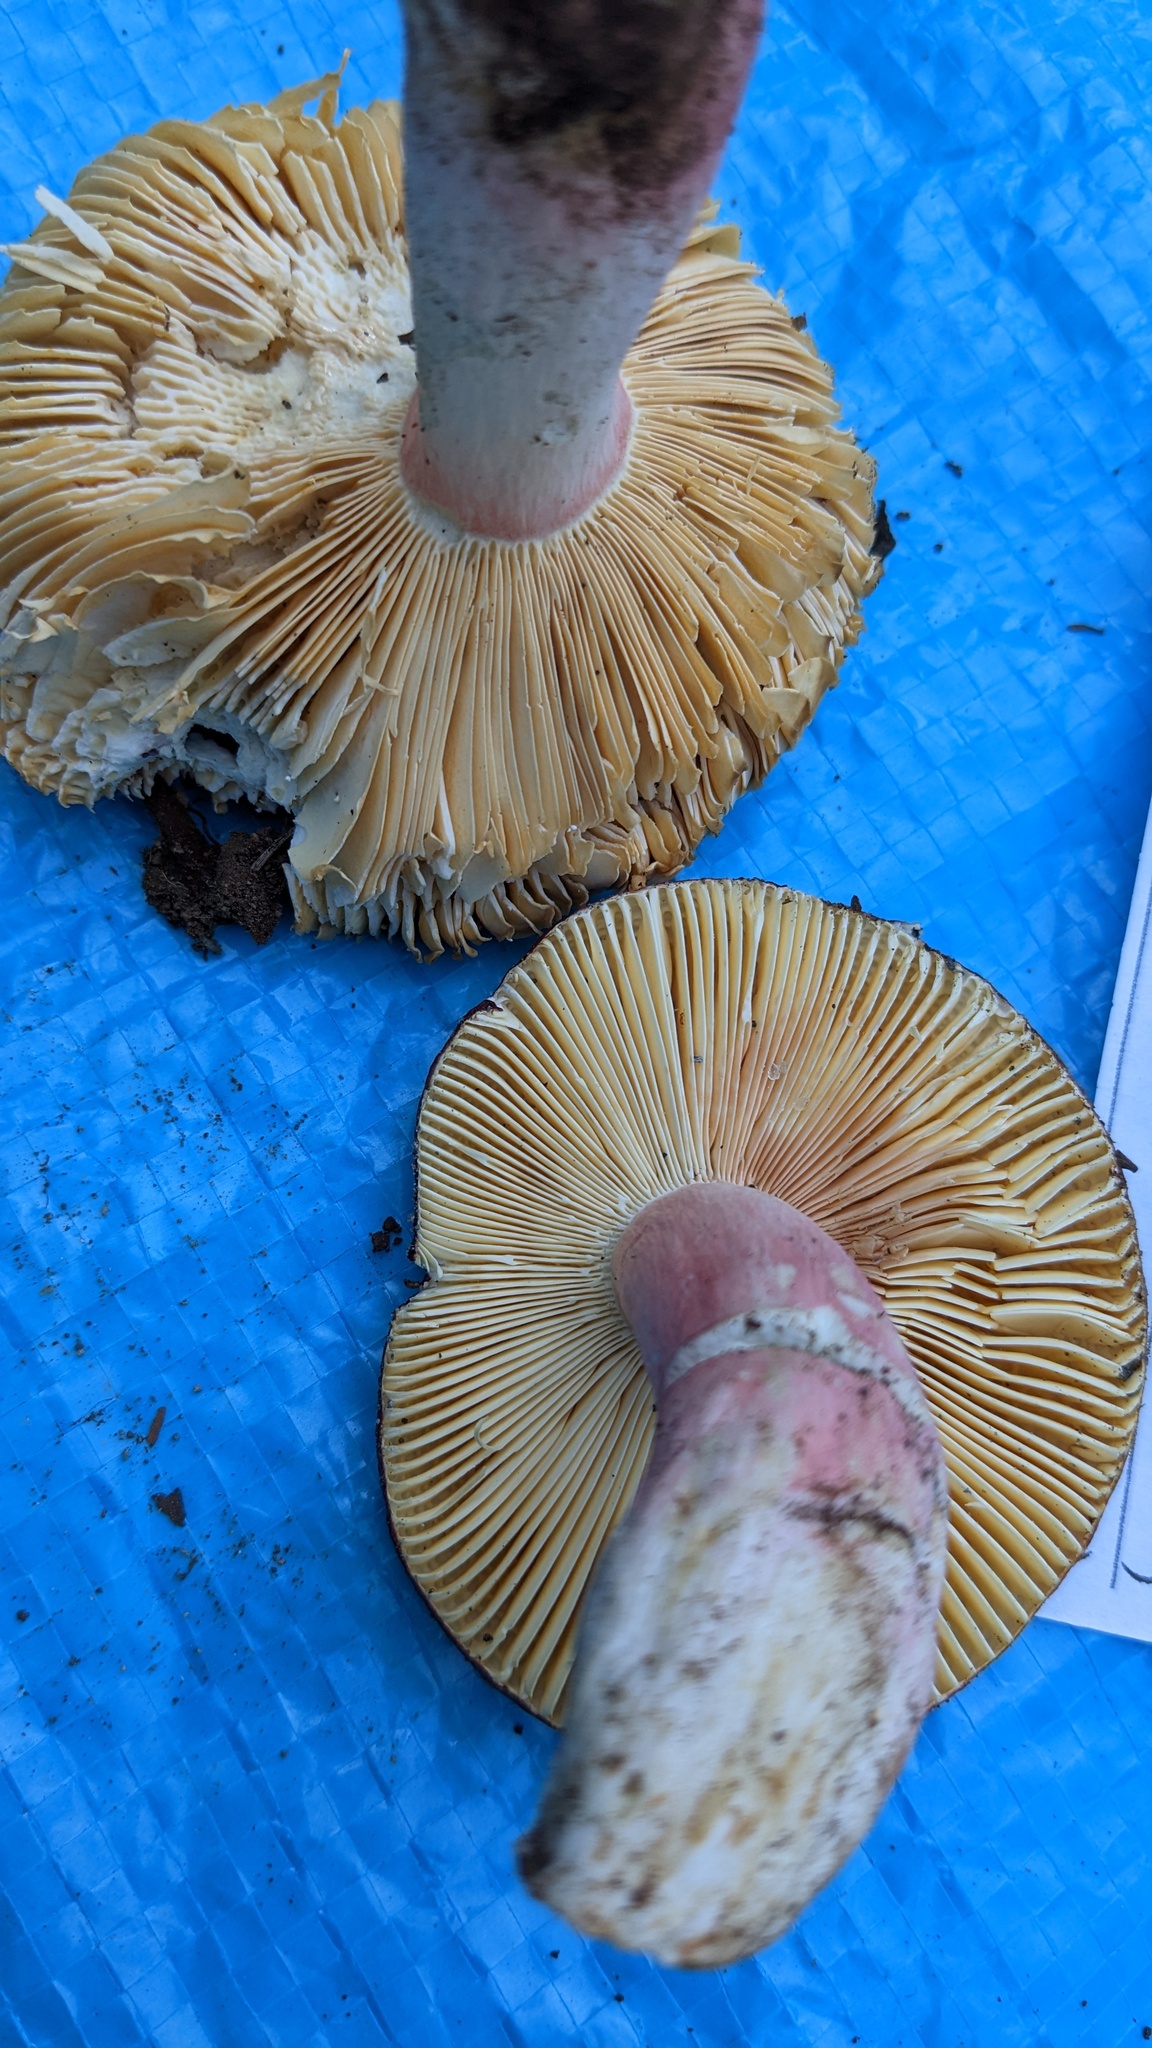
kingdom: Fungi
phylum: Basidiomycota
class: Agaricomycetes
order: Russulales
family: Russulaceae
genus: Russula
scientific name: Russula olivacea
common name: Olive brittlegill
